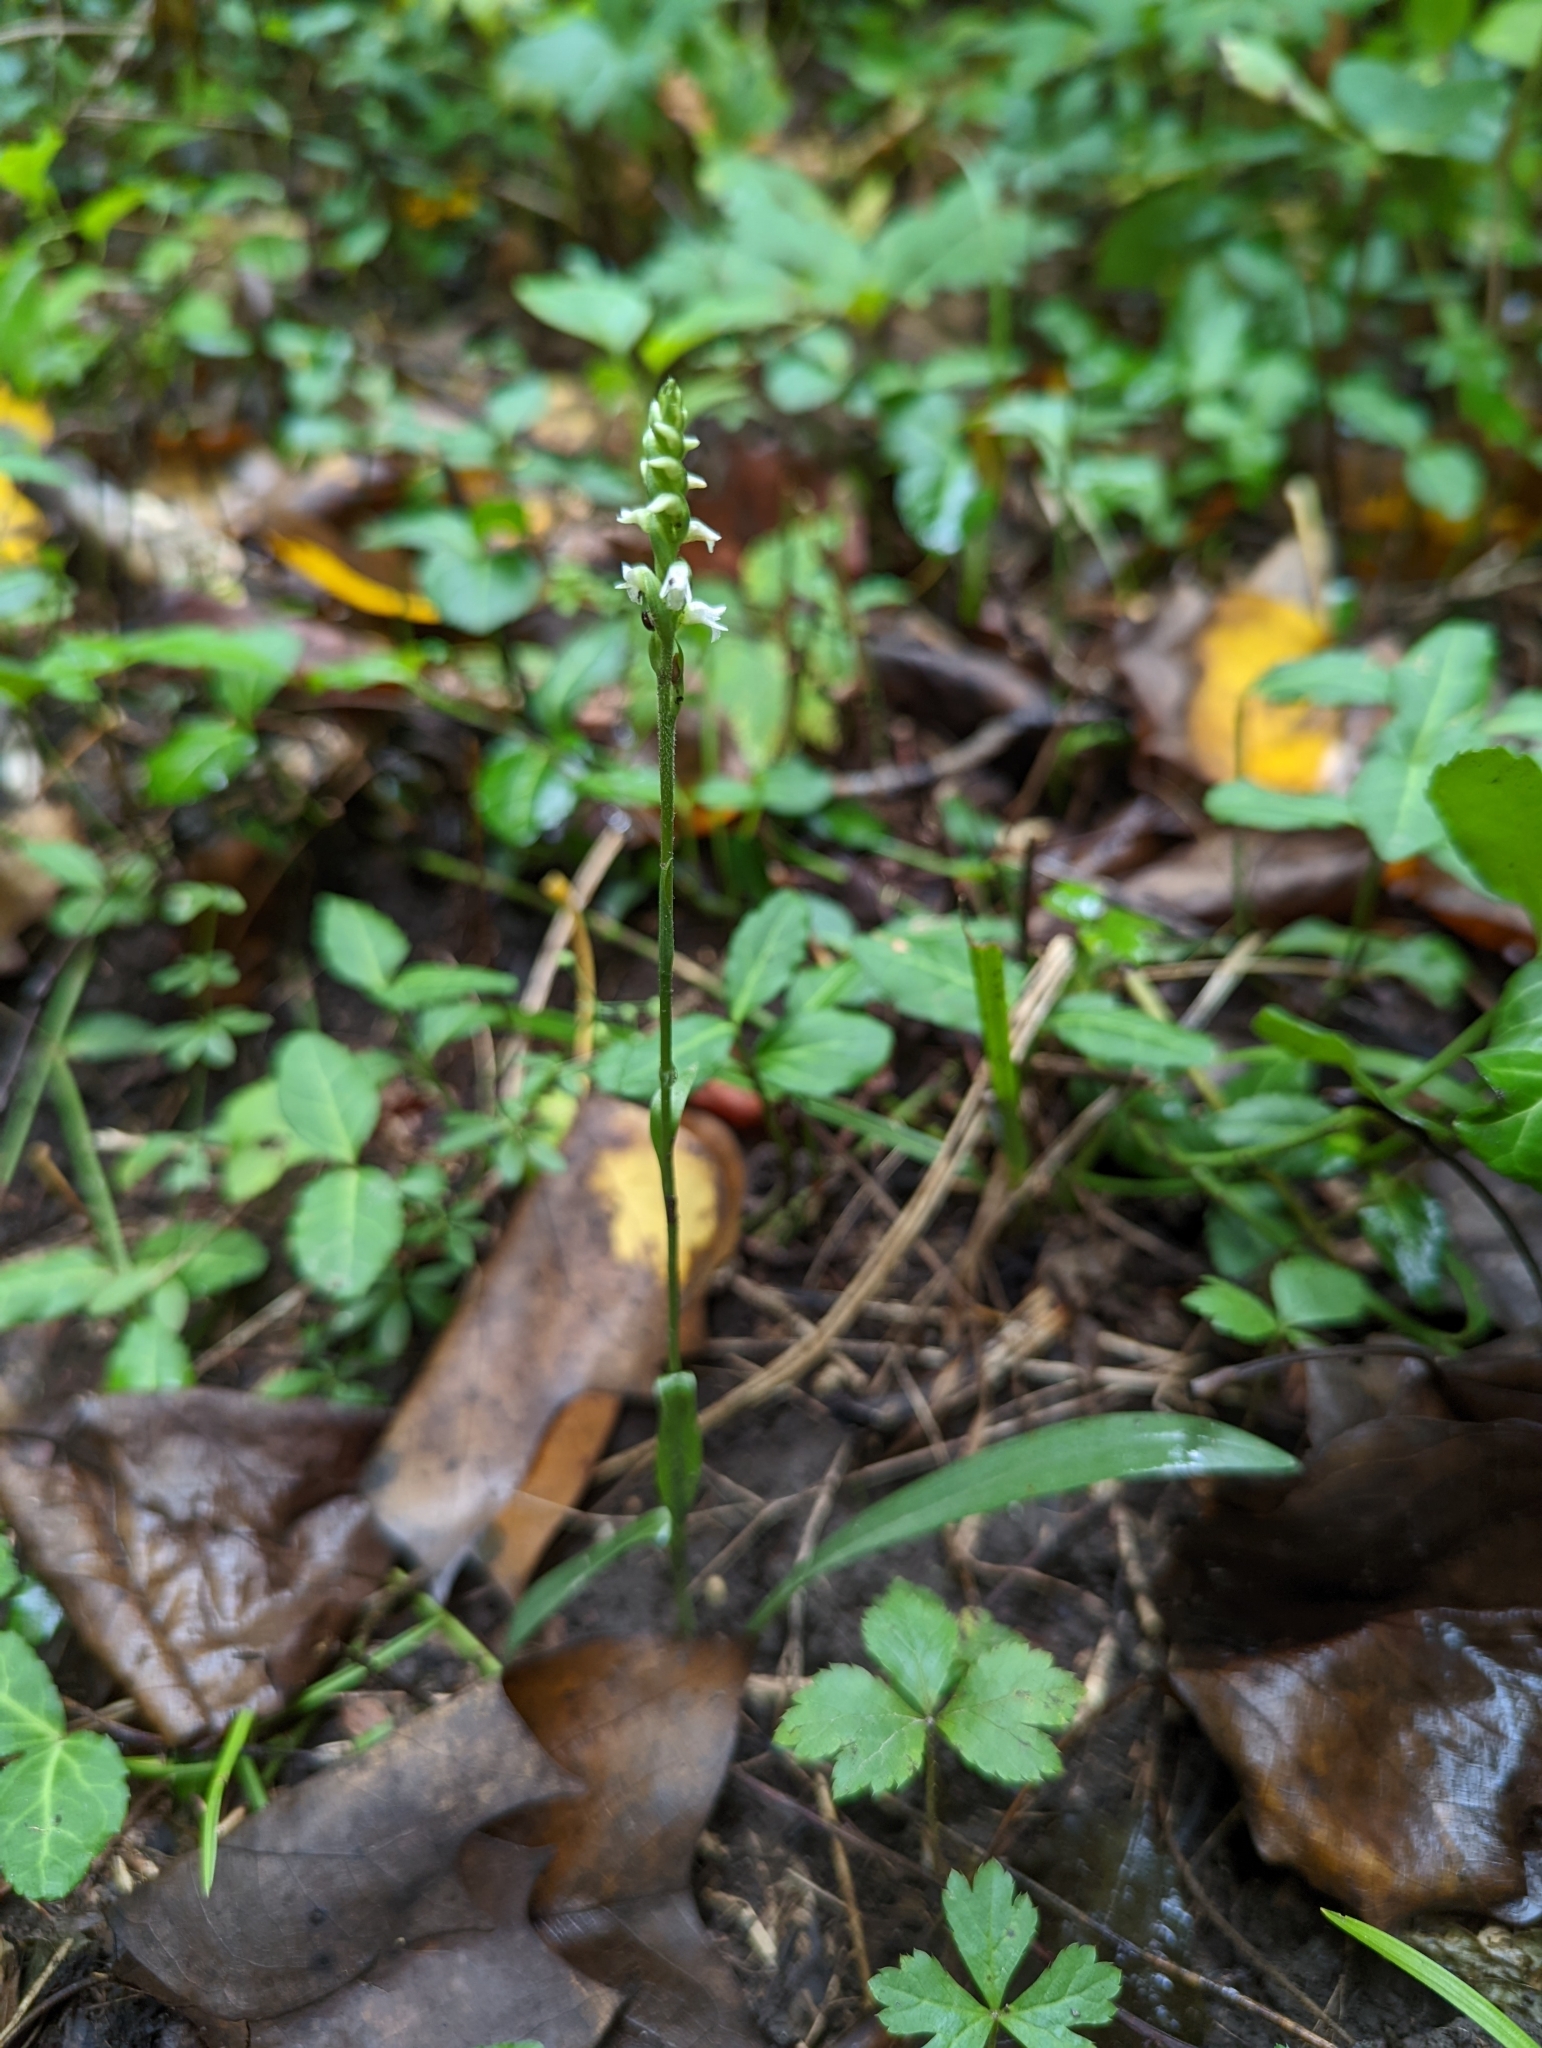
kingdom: Plantae
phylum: Tracheophyta
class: Liliopsida
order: Asparagales
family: Orchidaceae
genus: Spiranthes
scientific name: Spiranthes ovalis
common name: October ladies'-tresses
